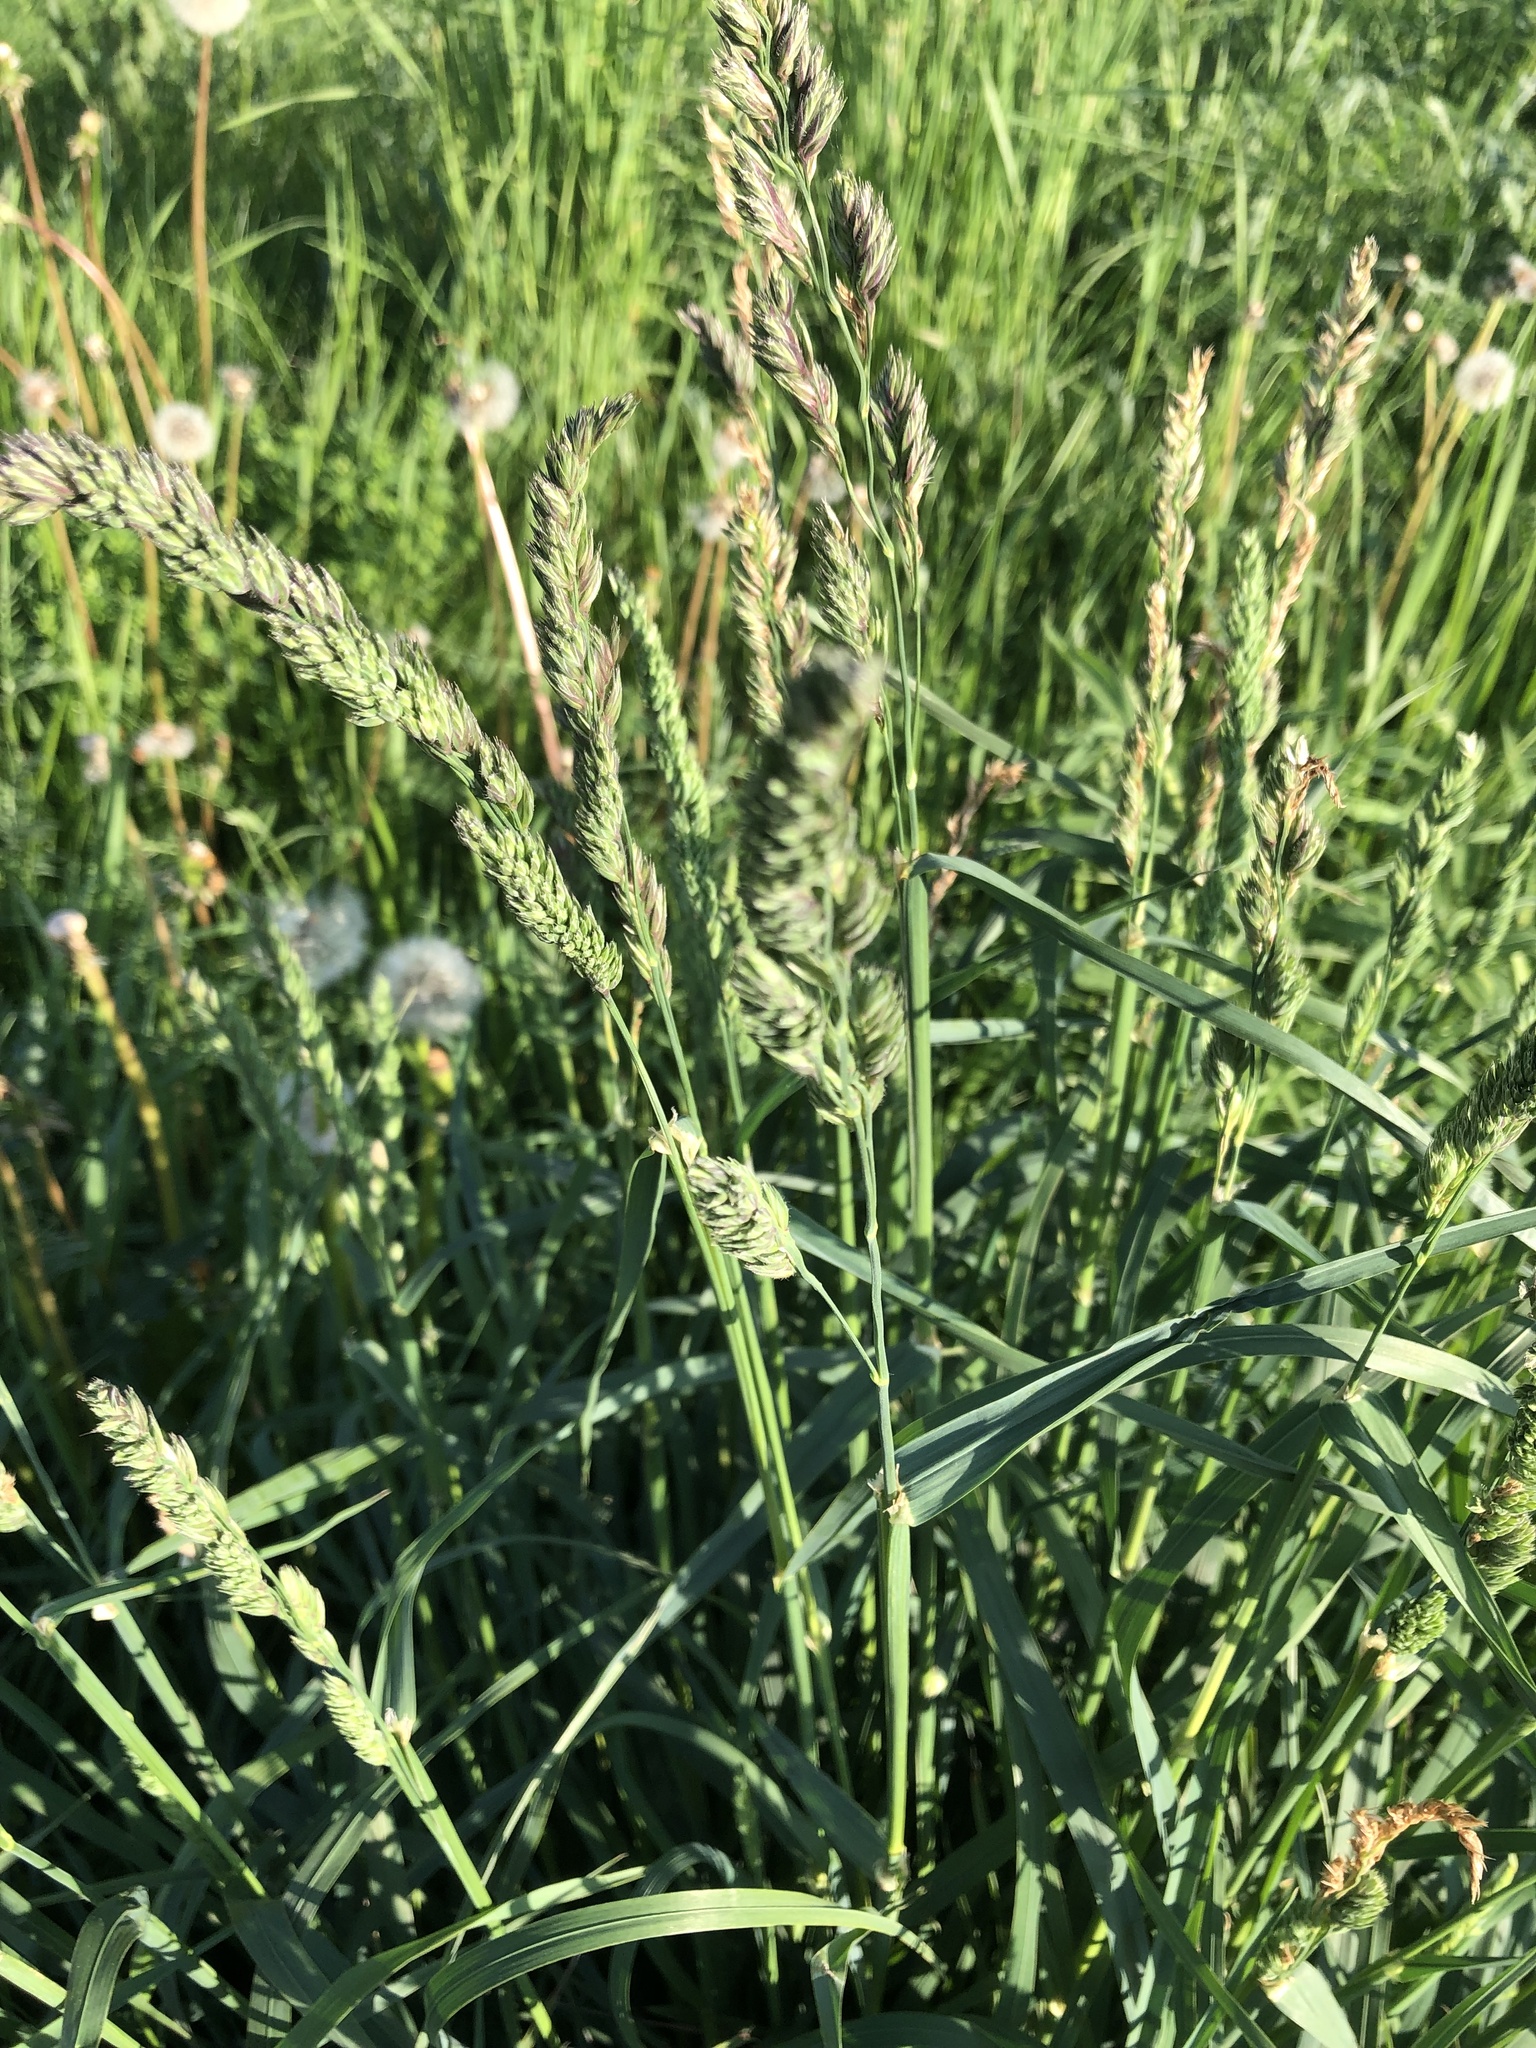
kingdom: Plantae
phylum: Tracheophyta
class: Liliopsida
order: Poales
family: Poaceae
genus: Dactylis
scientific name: Dactylis glomerata
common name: Orchardgrass
